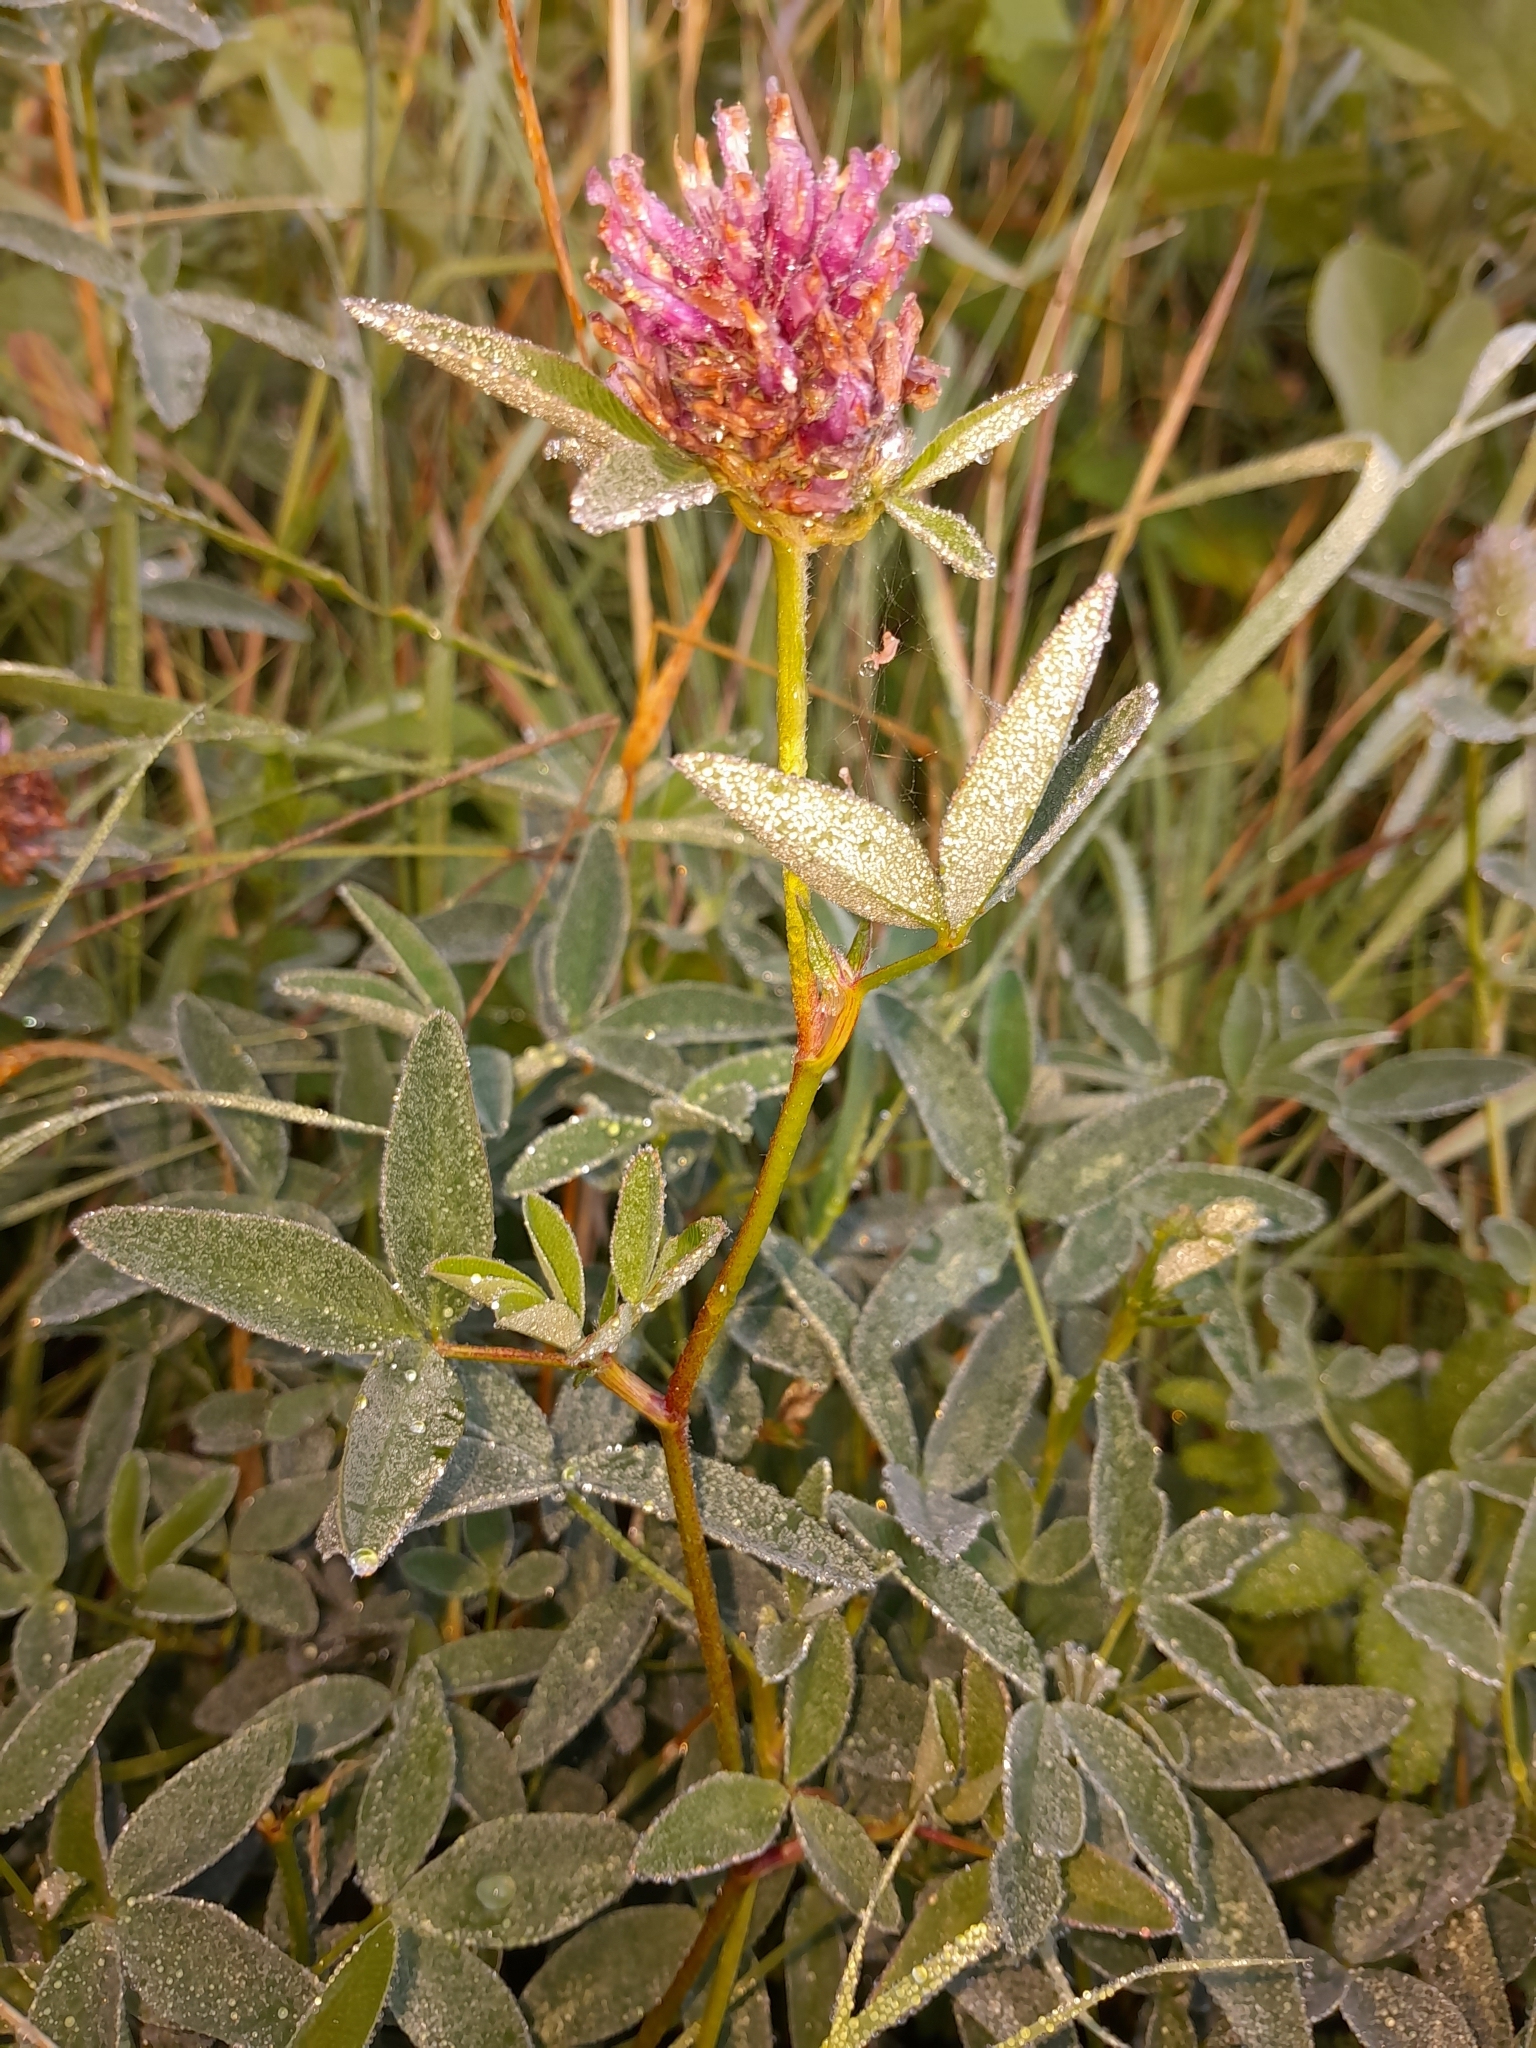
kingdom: Plantae
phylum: Tracheophyta
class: Magnoliopsida
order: Fabales
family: Fabaceae
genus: Trifolium
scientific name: Trifolium medium
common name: Zigzag clover
